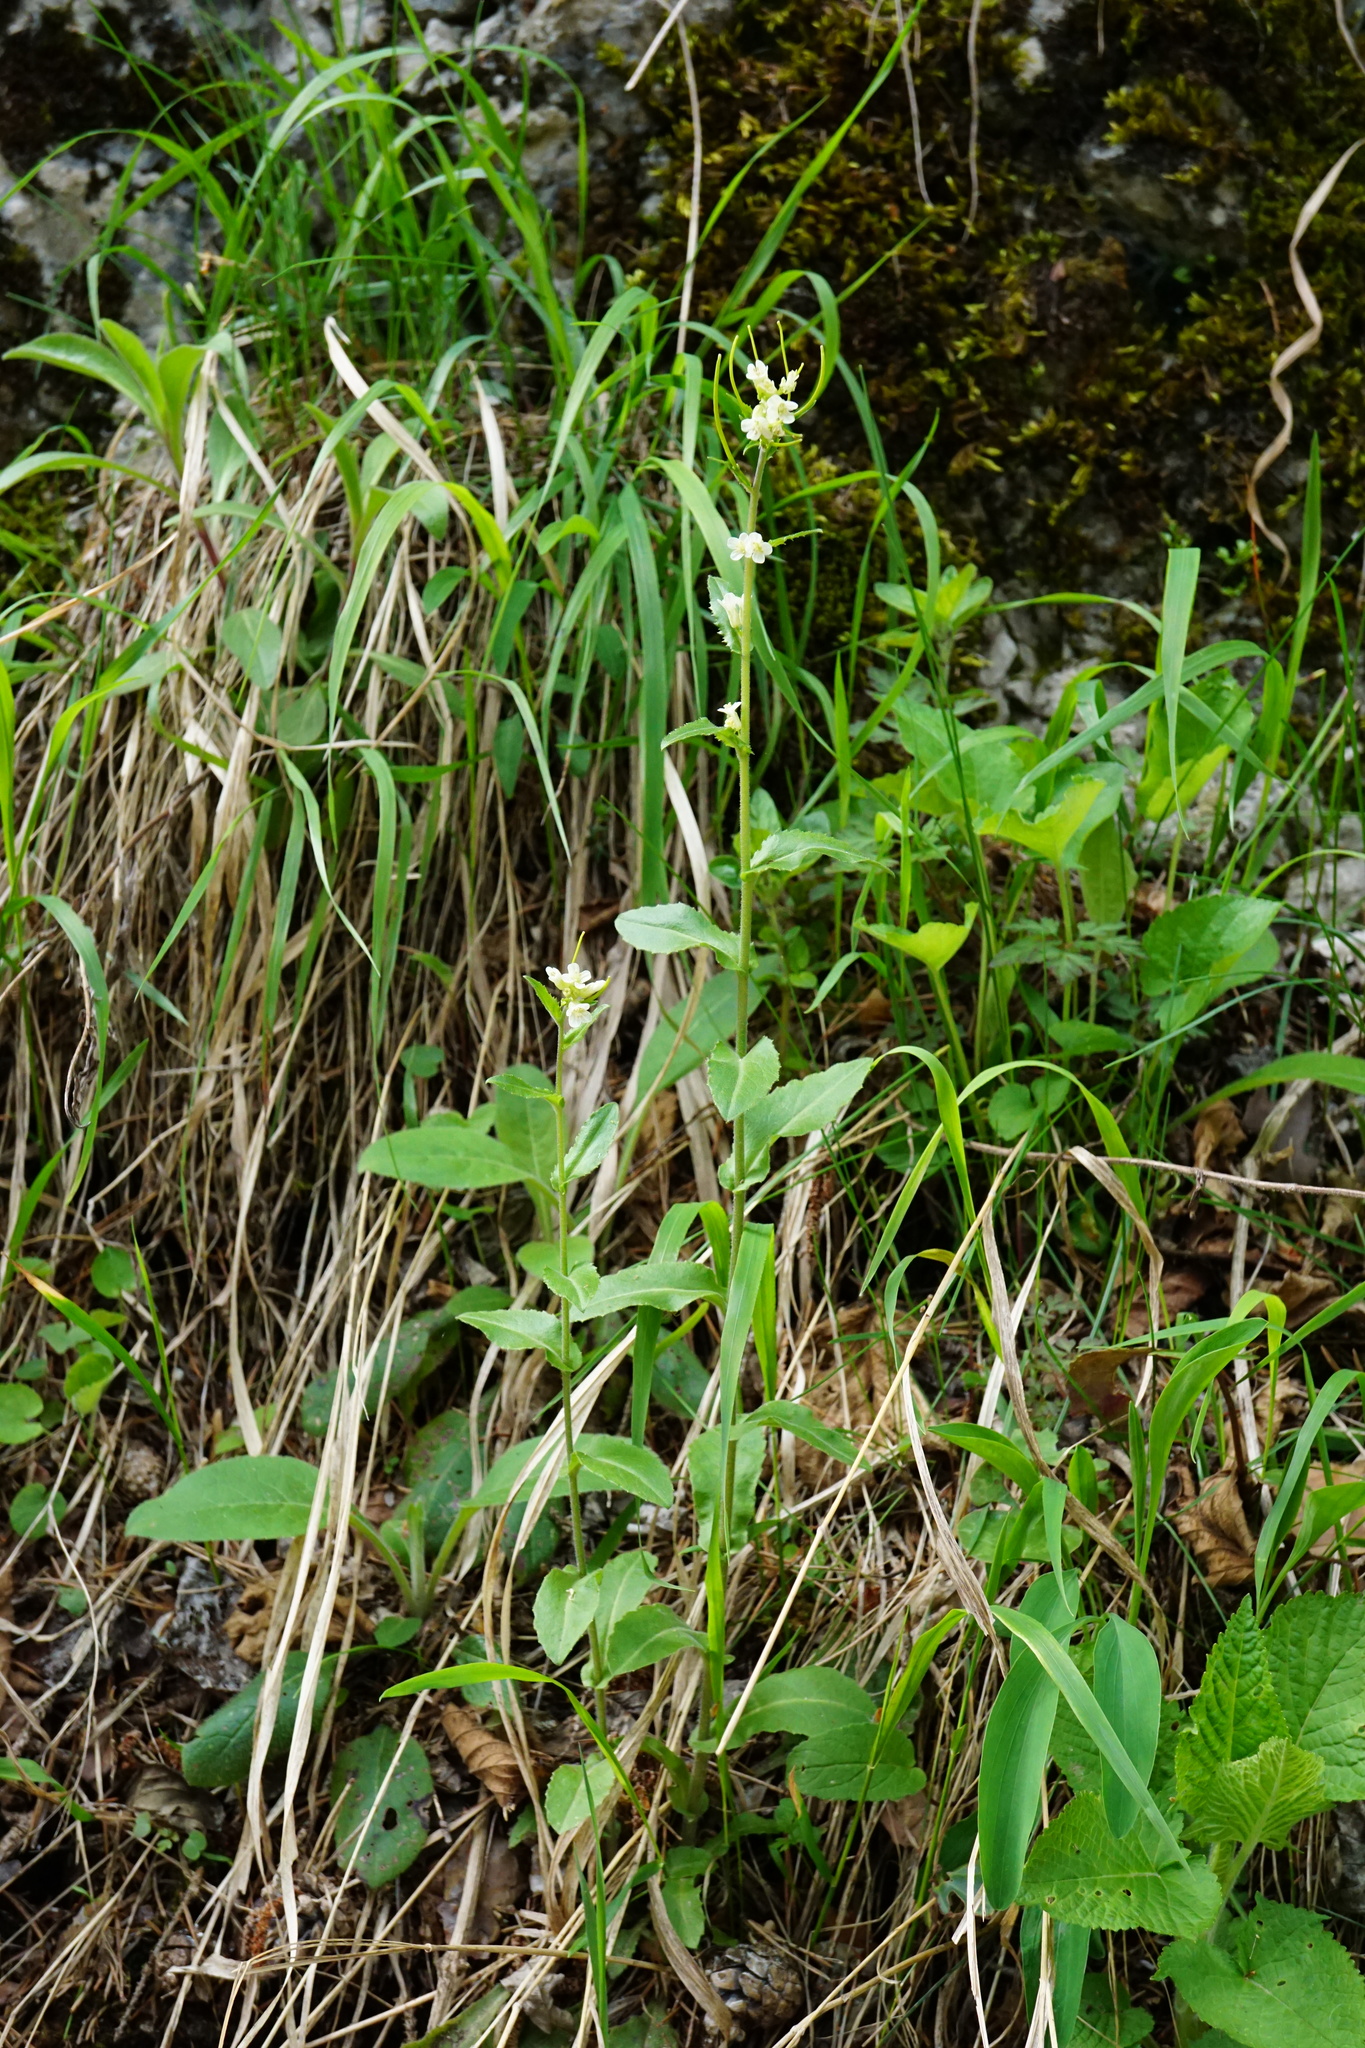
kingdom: Plantae
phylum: Tracheophyta
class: Magnoliopsida
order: Brassicales
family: Brassicaceae
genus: Pseudoturritis
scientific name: Pseudoturritis turrita
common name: Tower cress
